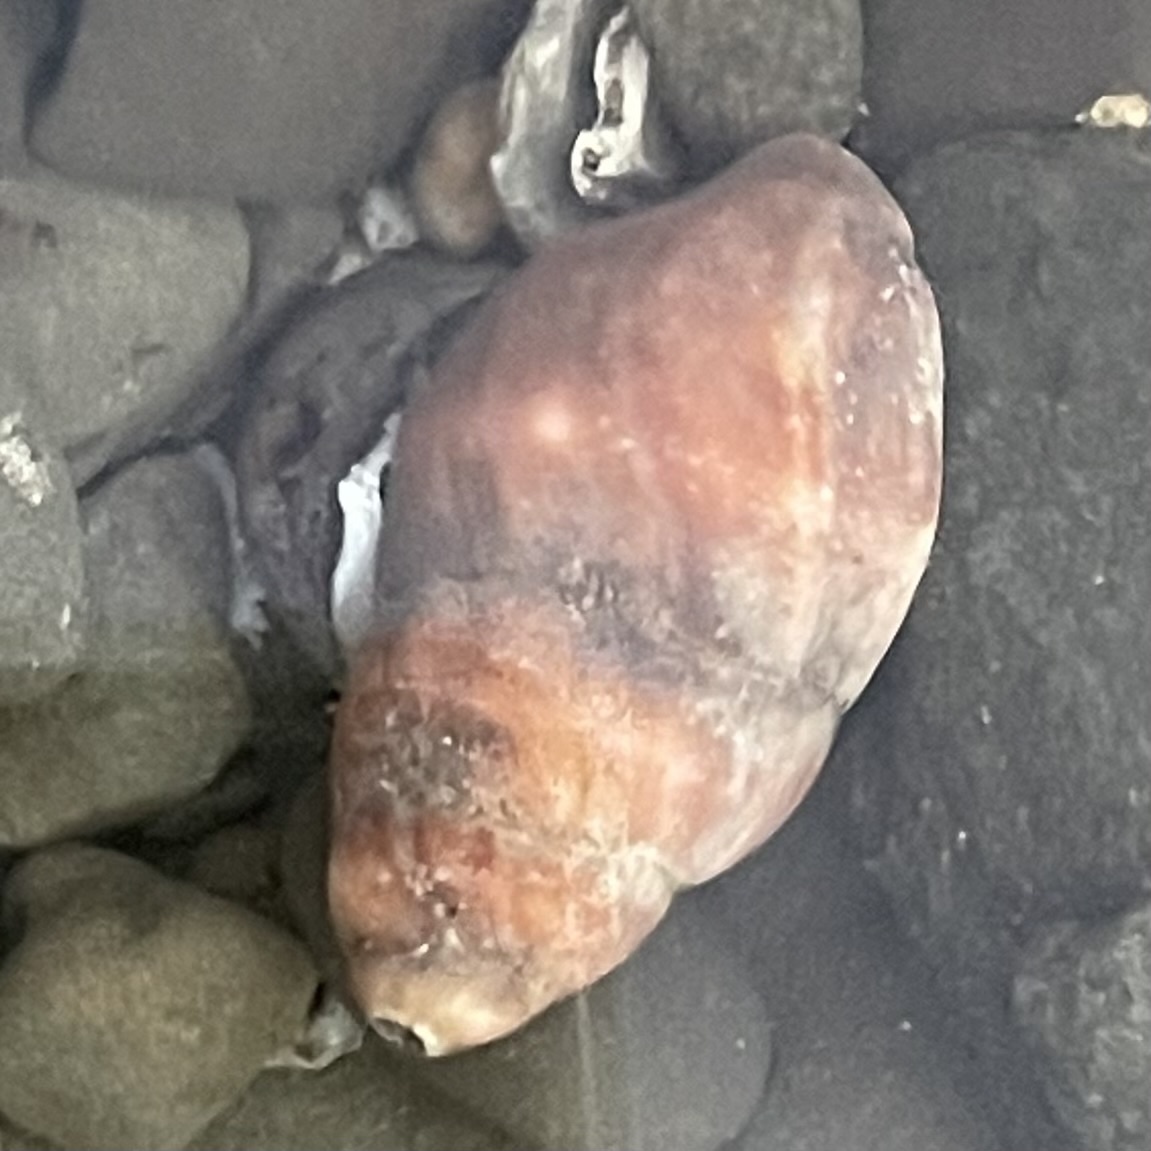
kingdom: Animalia
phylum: Mollusca
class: Gastropoda
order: Neogastropoda
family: Muricidae
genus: Nucella
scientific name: Nucella lamellosa
